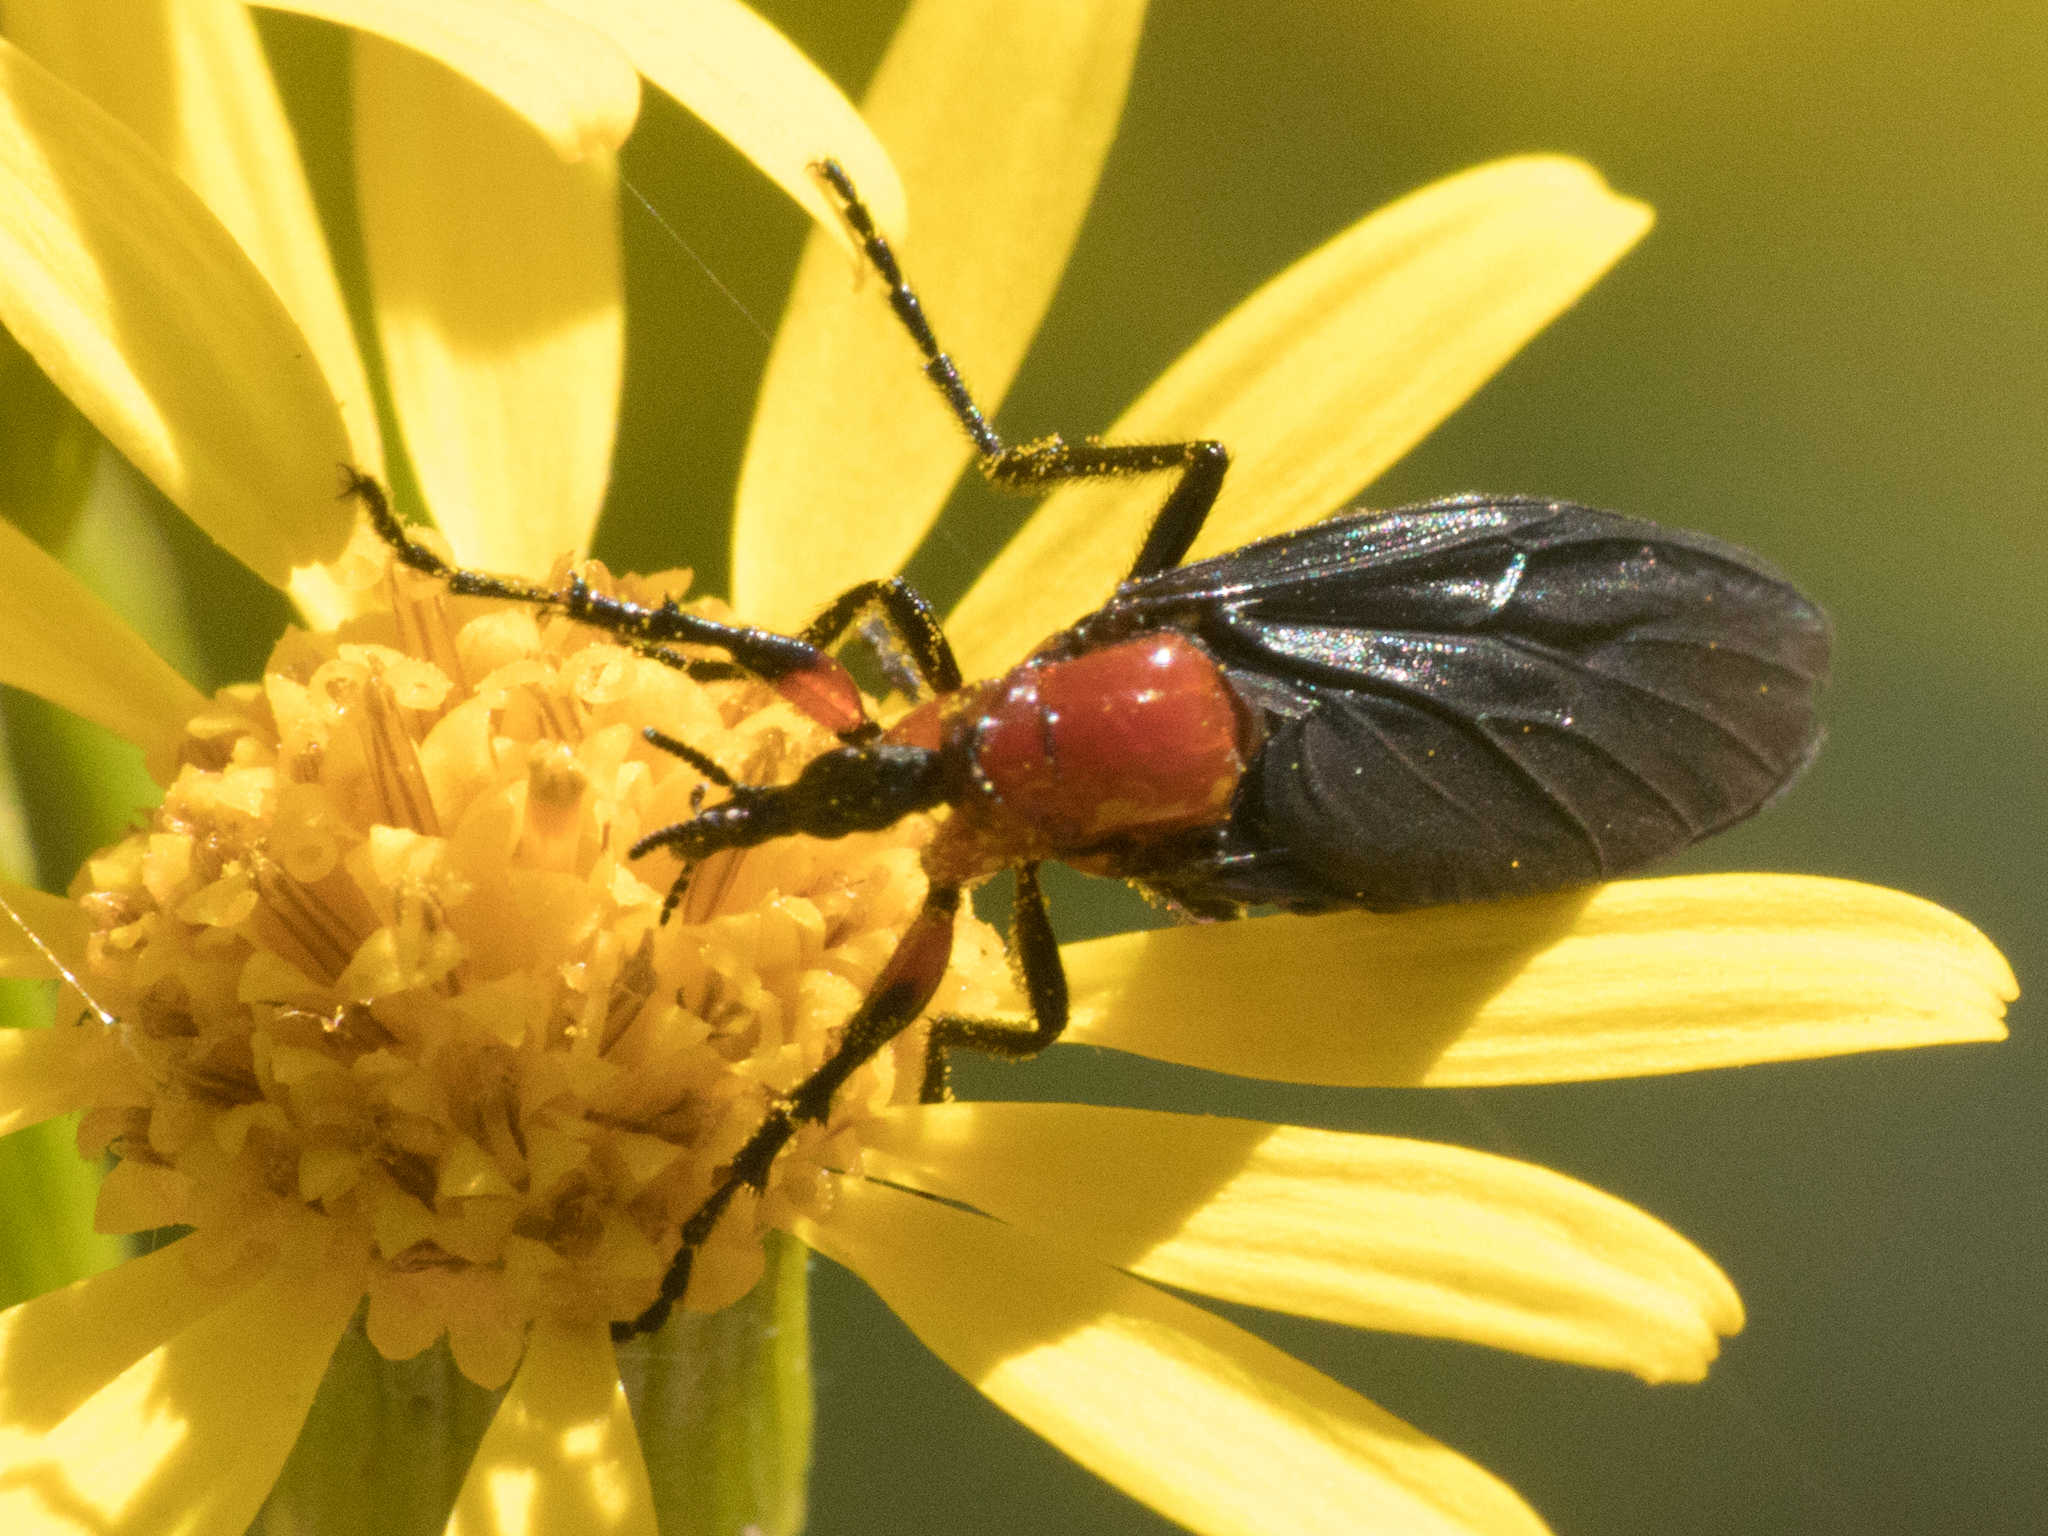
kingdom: Animalia
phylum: Arthropoda
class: Insecta
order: Diptera
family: Bibionidae
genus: Dilophus
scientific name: Dilophus pectoralis
